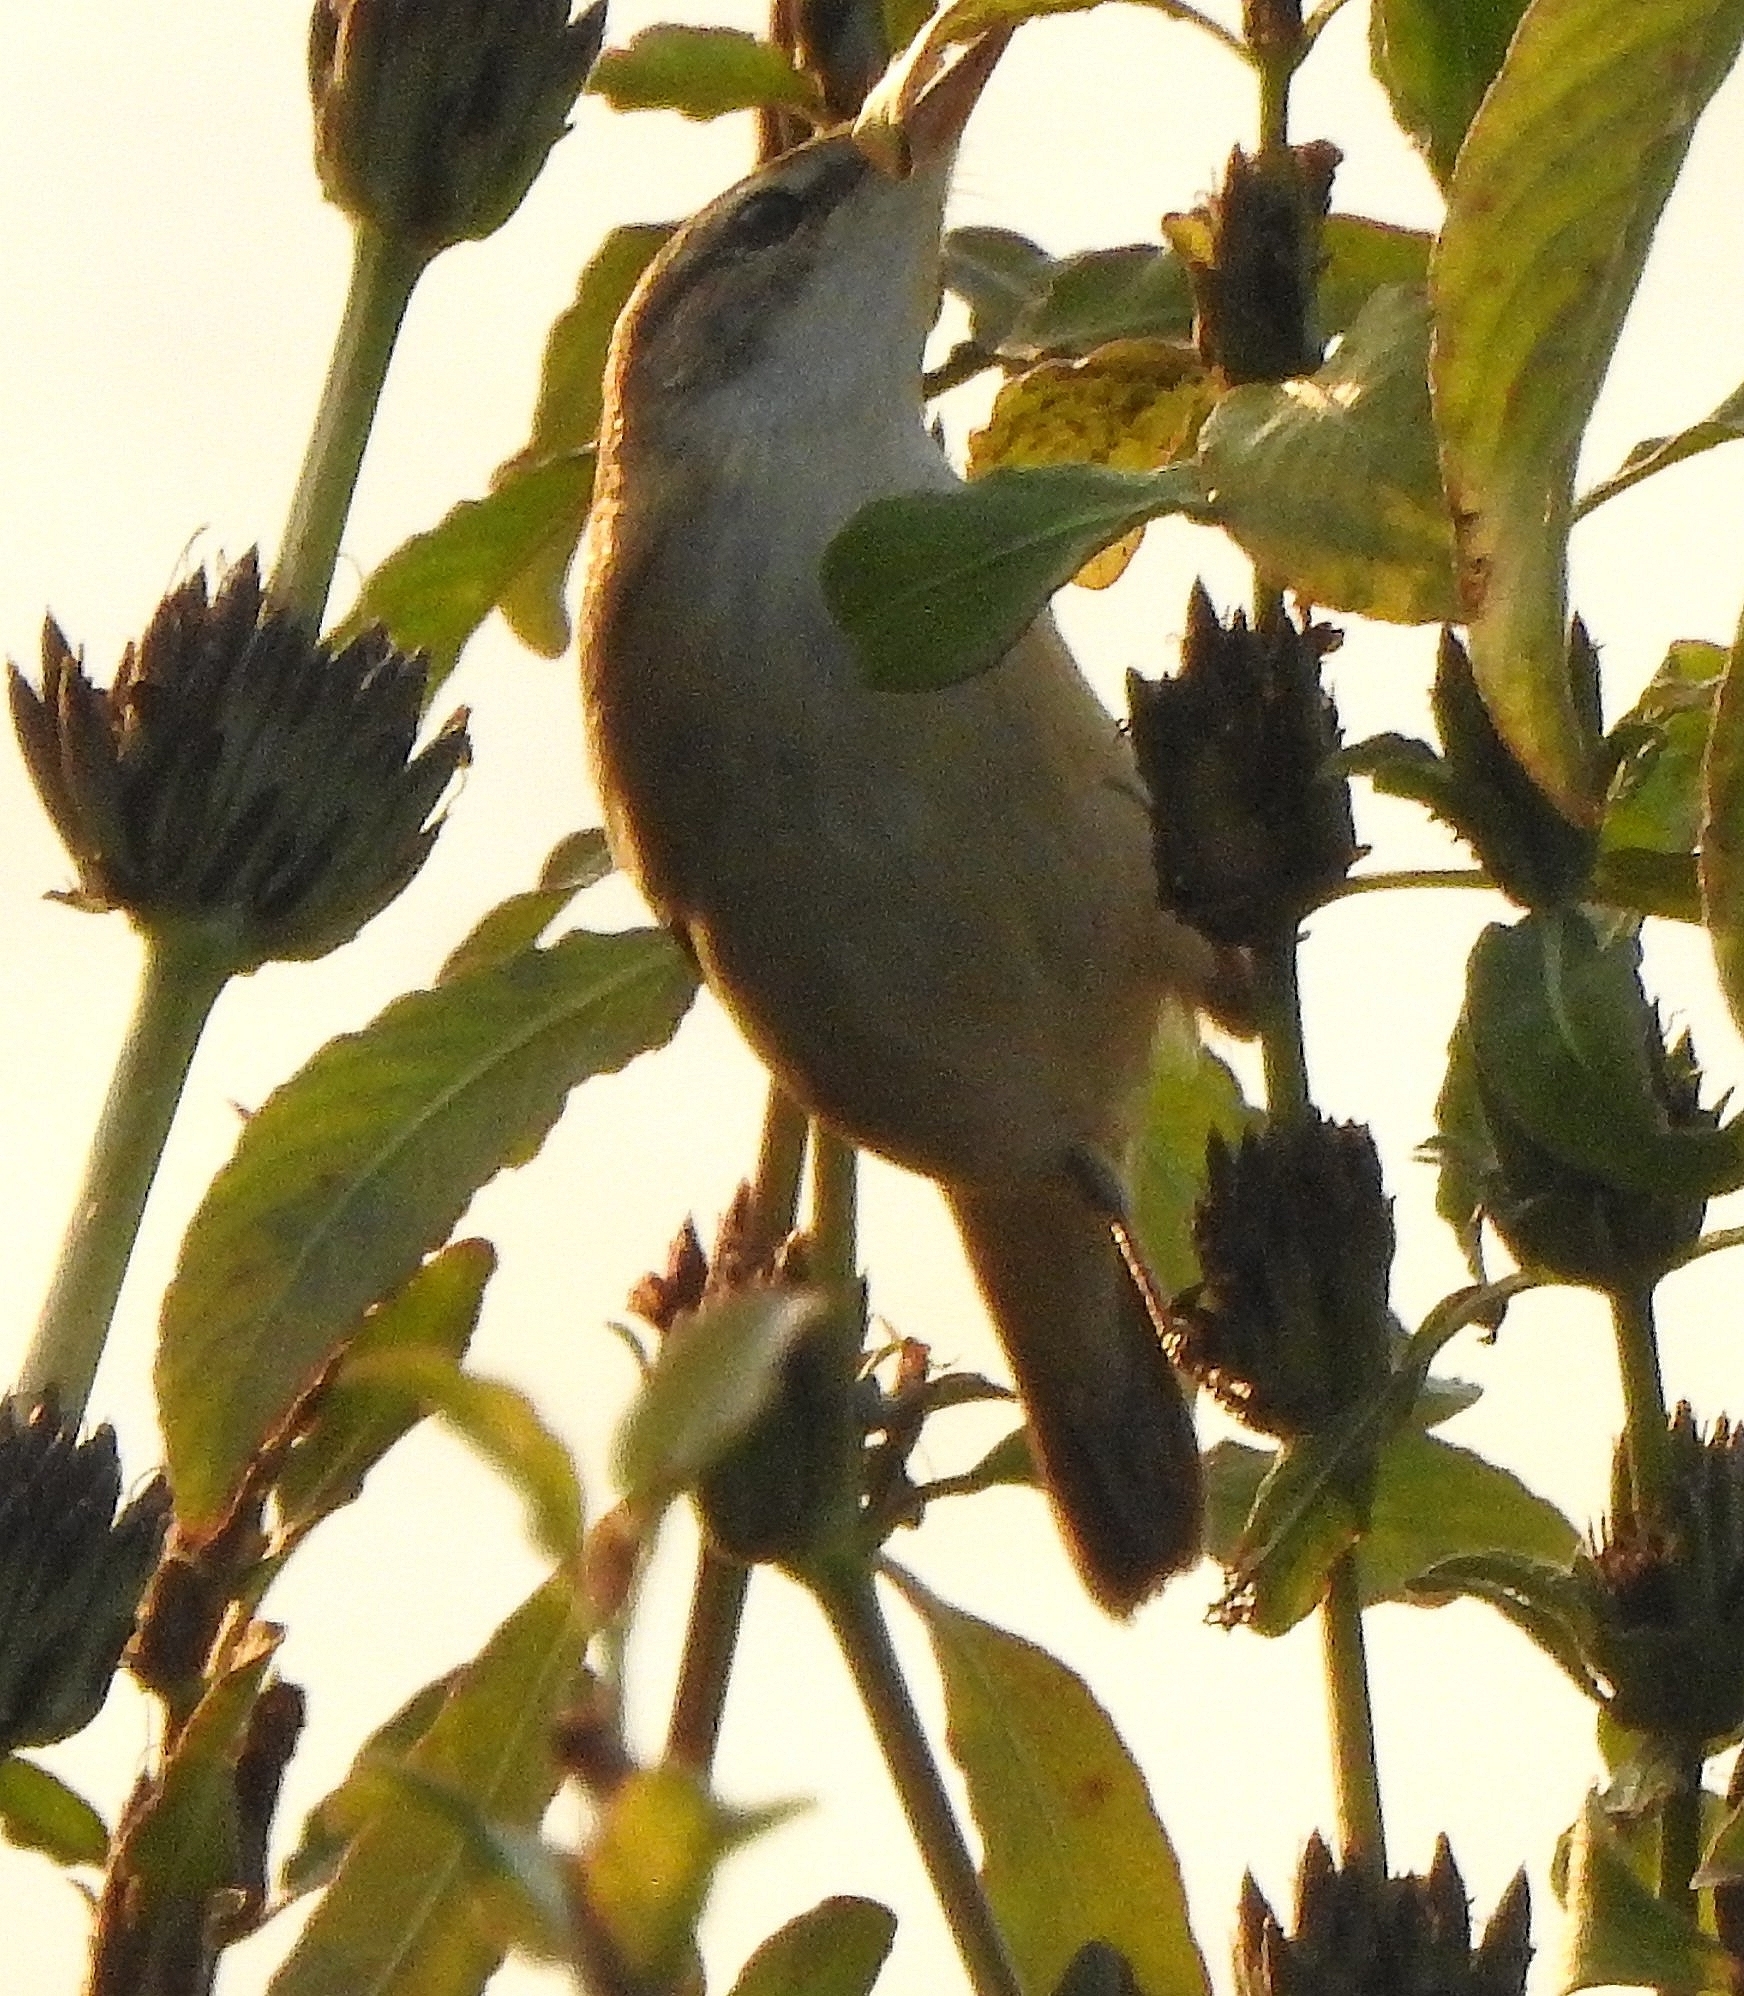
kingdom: Animalia
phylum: Chordata
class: Aves
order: Passeriformes
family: Acrocephalidae
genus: Acrocephalus
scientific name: Acrocephalus agricola
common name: Paddyfield warbler
